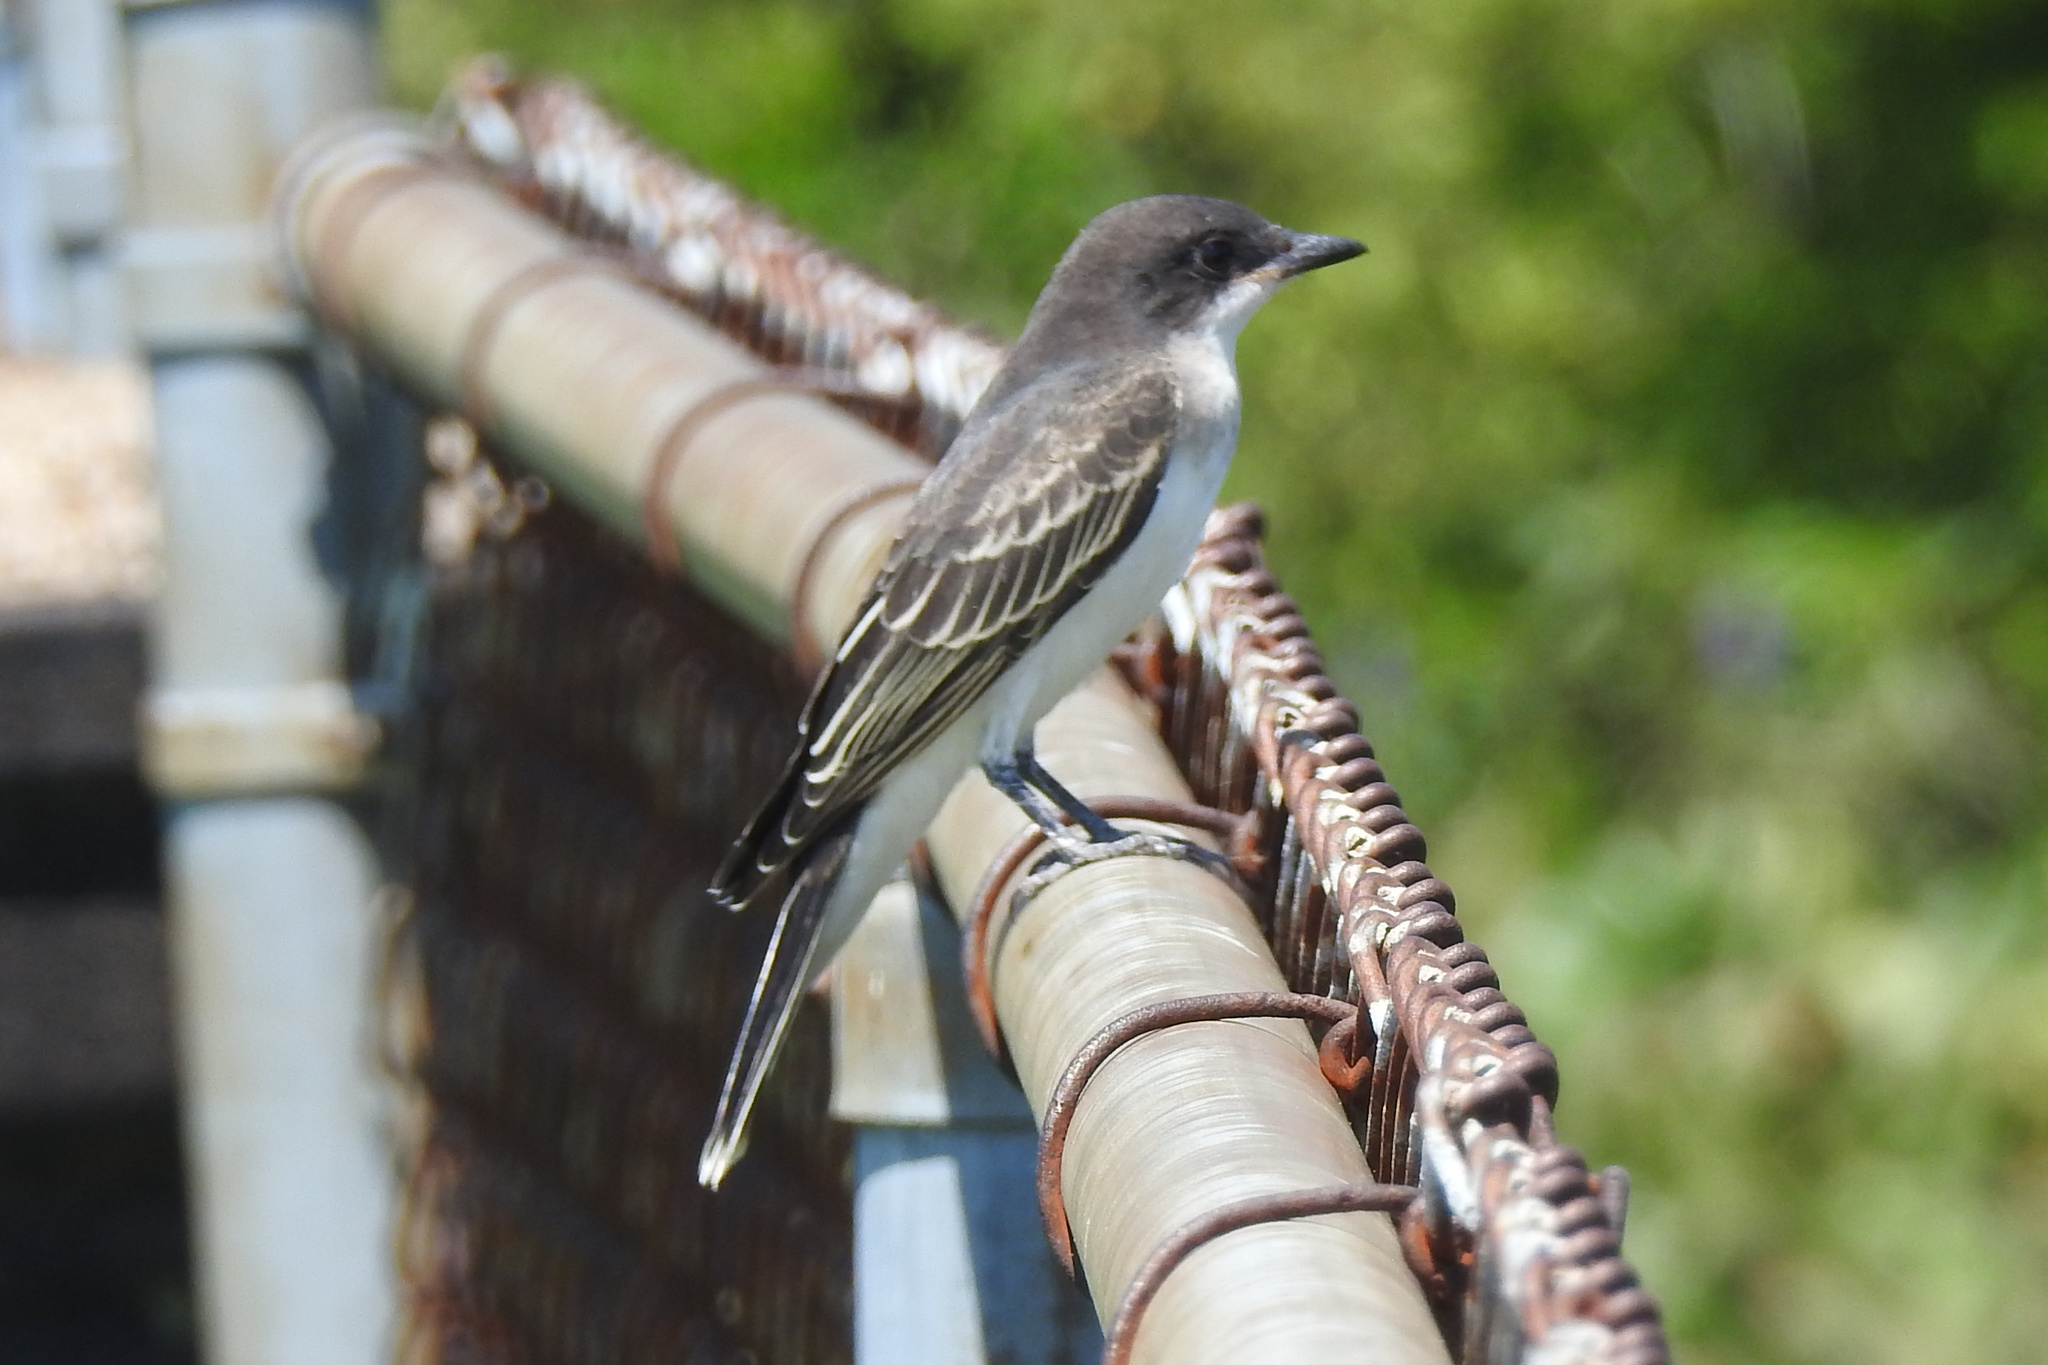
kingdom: Animalia
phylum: Chordata
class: Aves
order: Passeriformes
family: Tyrannidae
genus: Tyrannus
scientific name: Tyrannus tyrannus
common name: Eastern kingbird
